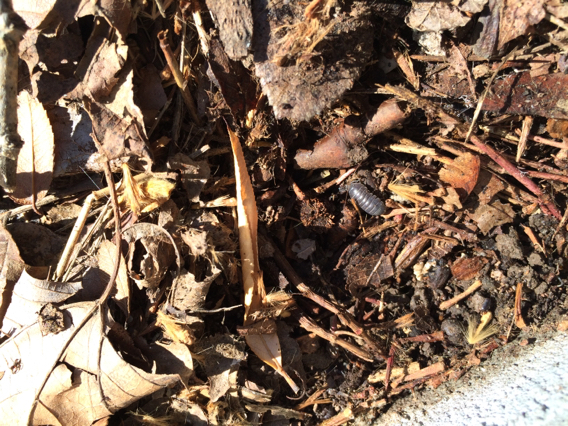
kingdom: Animalia
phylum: Arthropoda
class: Malacostraca
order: Isopoda
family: Armadillidiidae
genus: Armadillidium
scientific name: Armadillidium vulgare
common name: Common pill woodlouse
